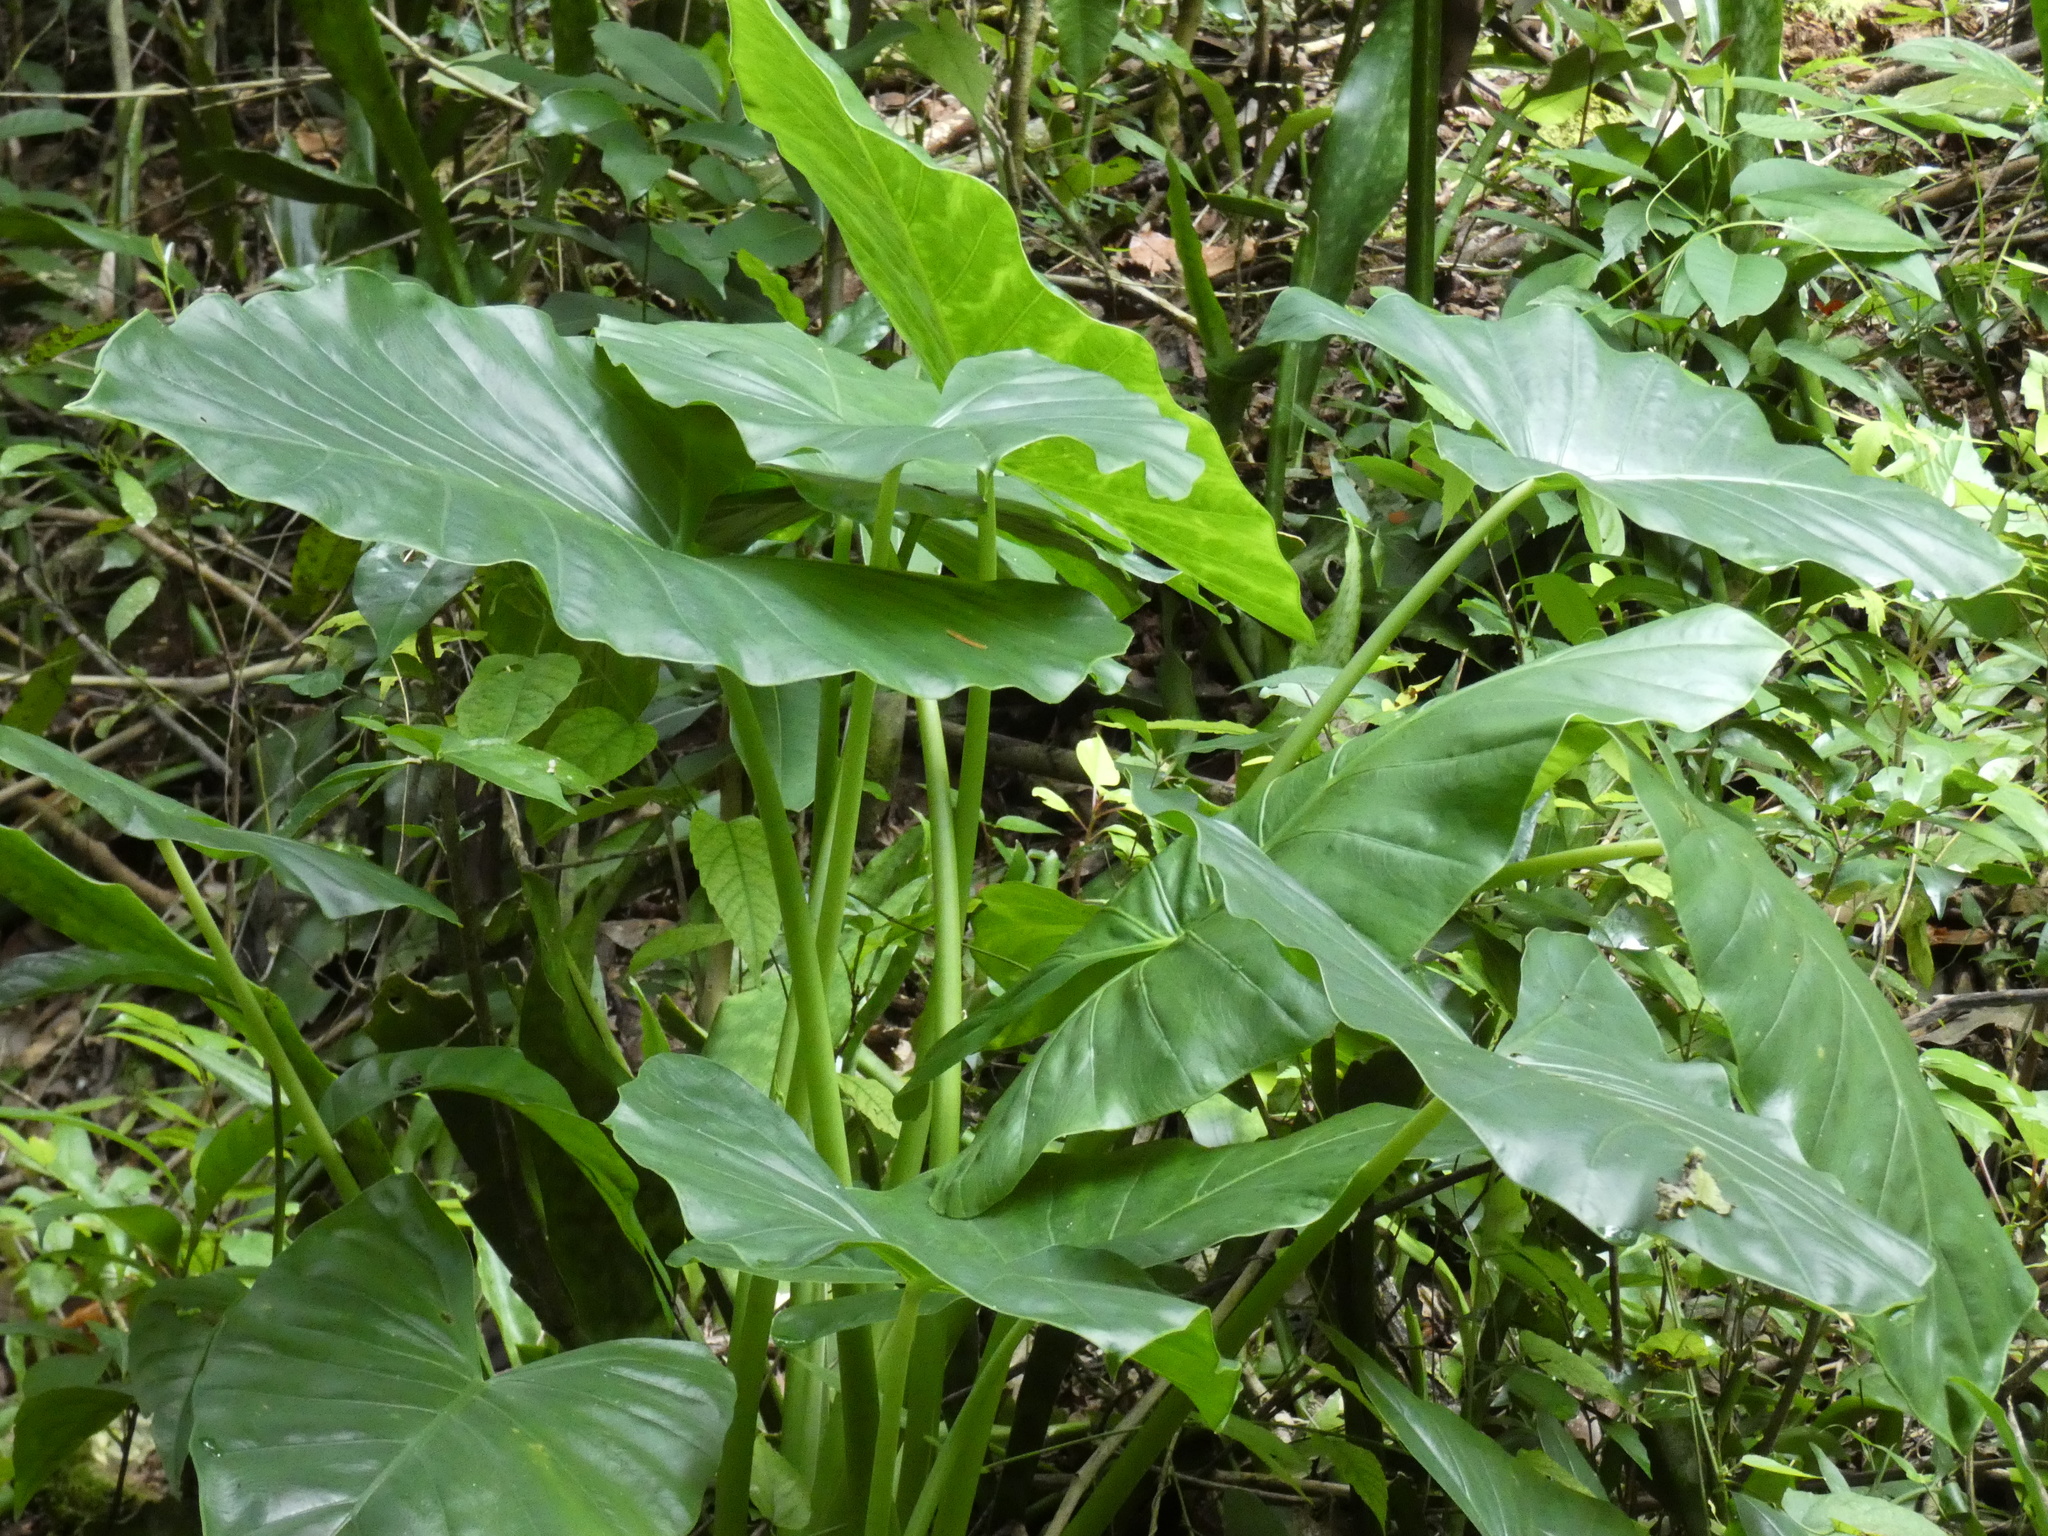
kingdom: Plantae
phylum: Tracheophyta
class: Liliopsida
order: Alismatales
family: Araceae
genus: Alocasia
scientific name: Alocasia macrorrhizos
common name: Giant taro
